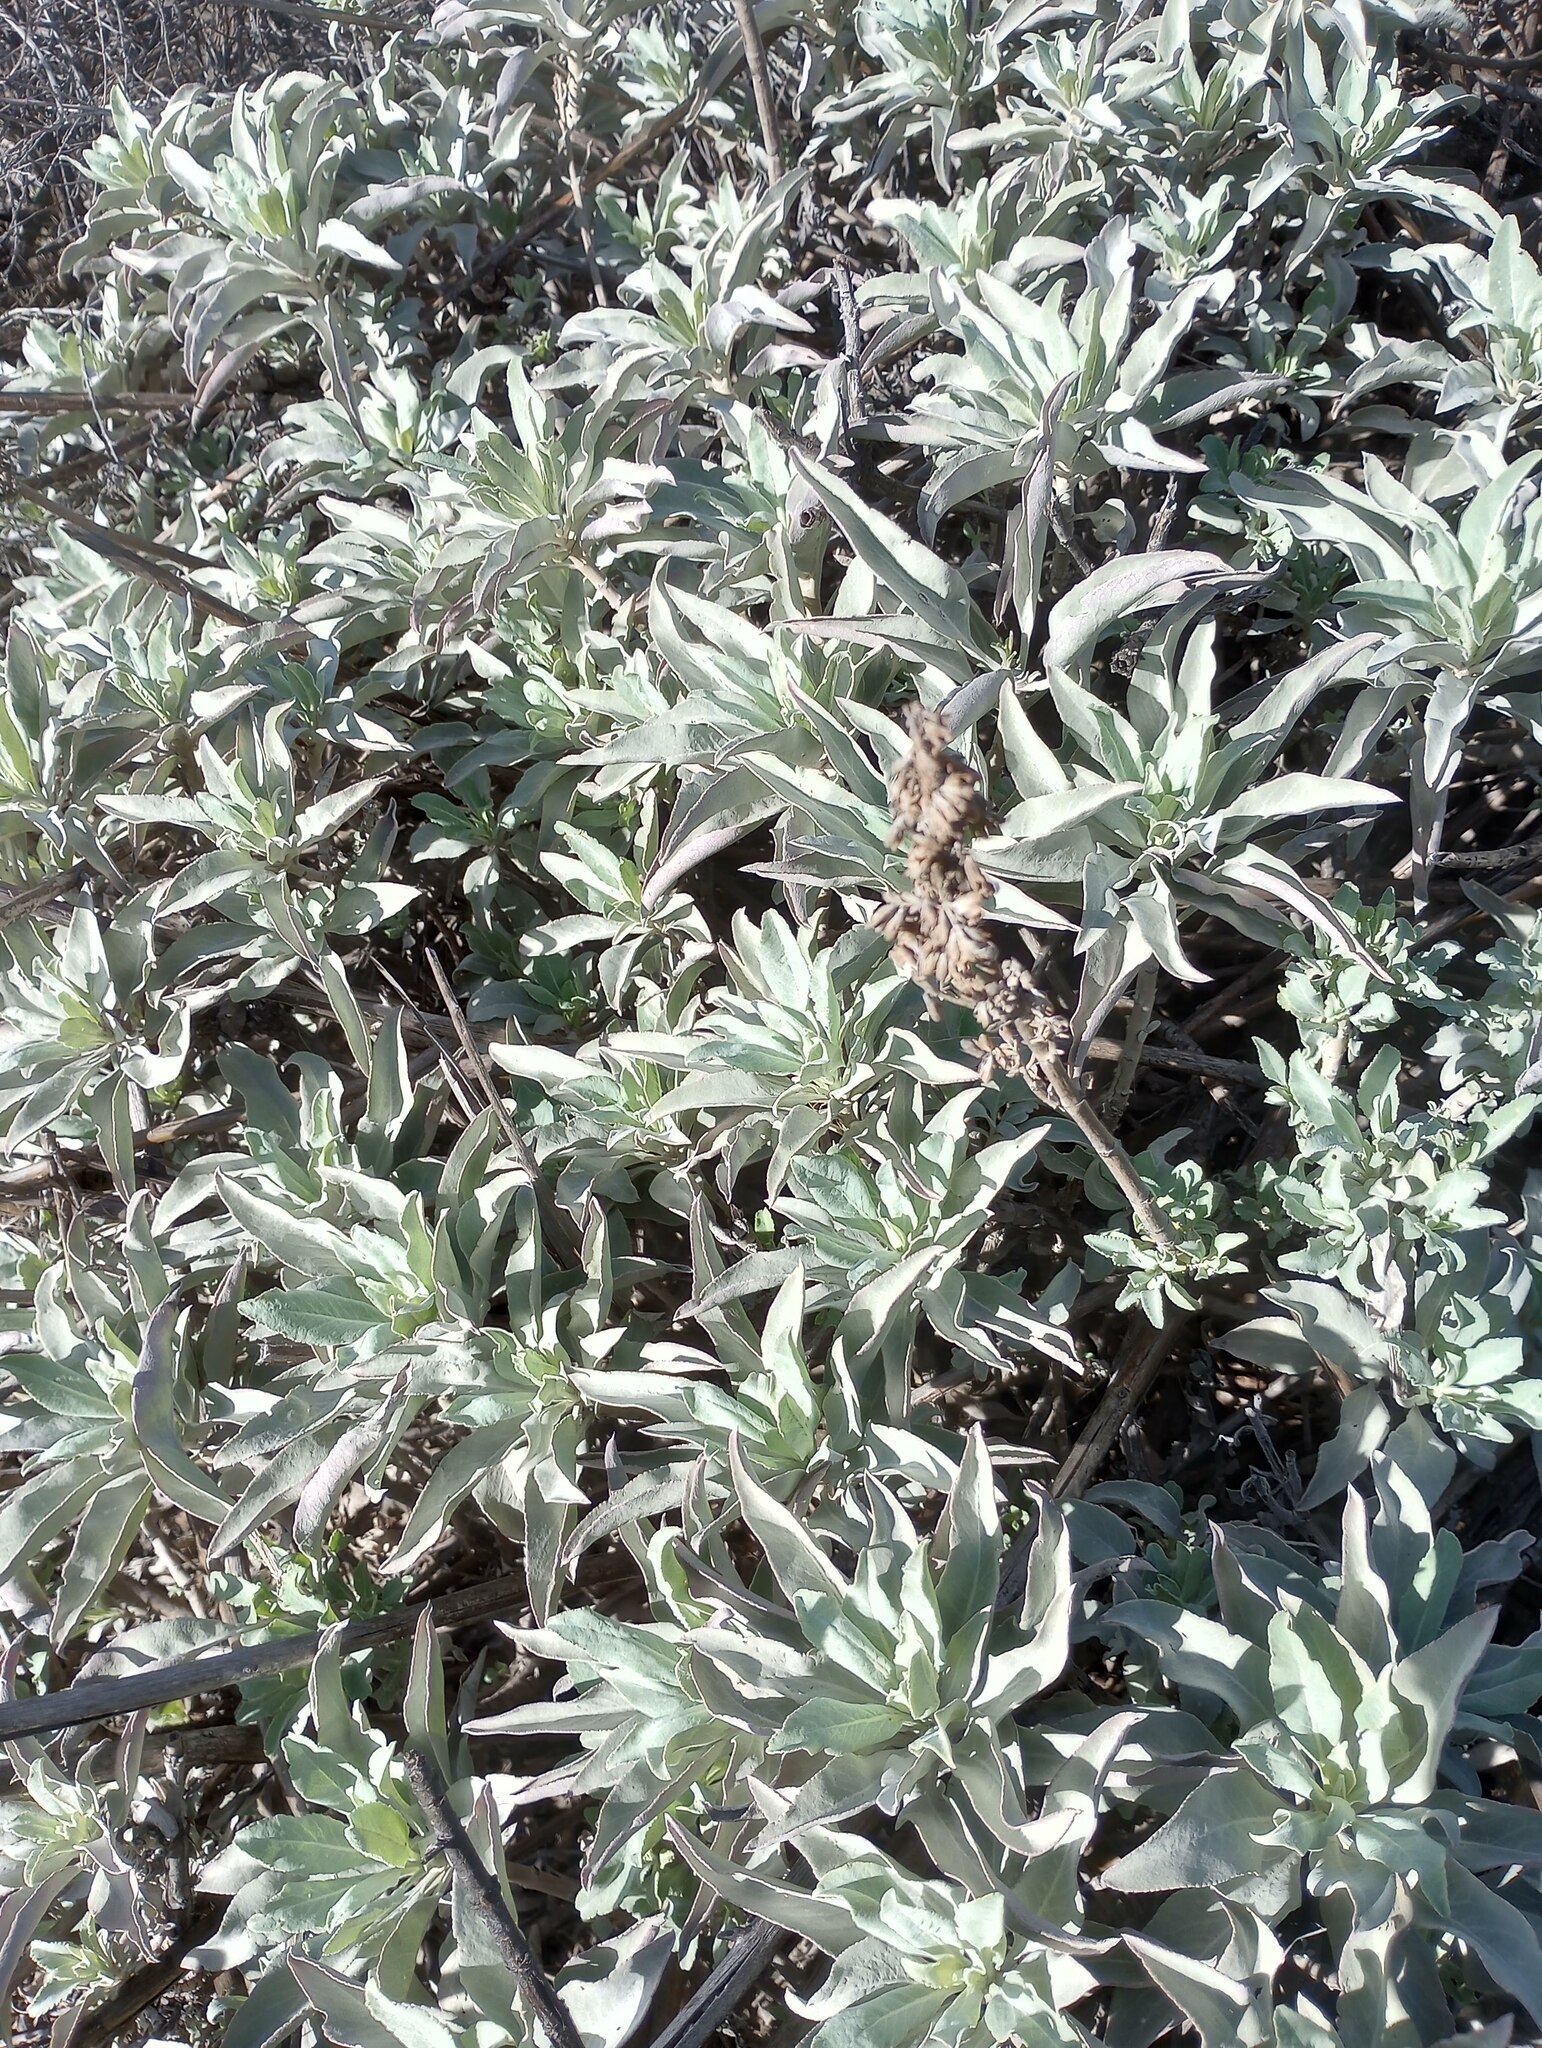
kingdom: Plantae
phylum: Tracheophyta
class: Magnoliopsida
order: Lamiales
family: Lamiaceae
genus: Salvia
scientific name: Salvia apiana
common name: White sage
